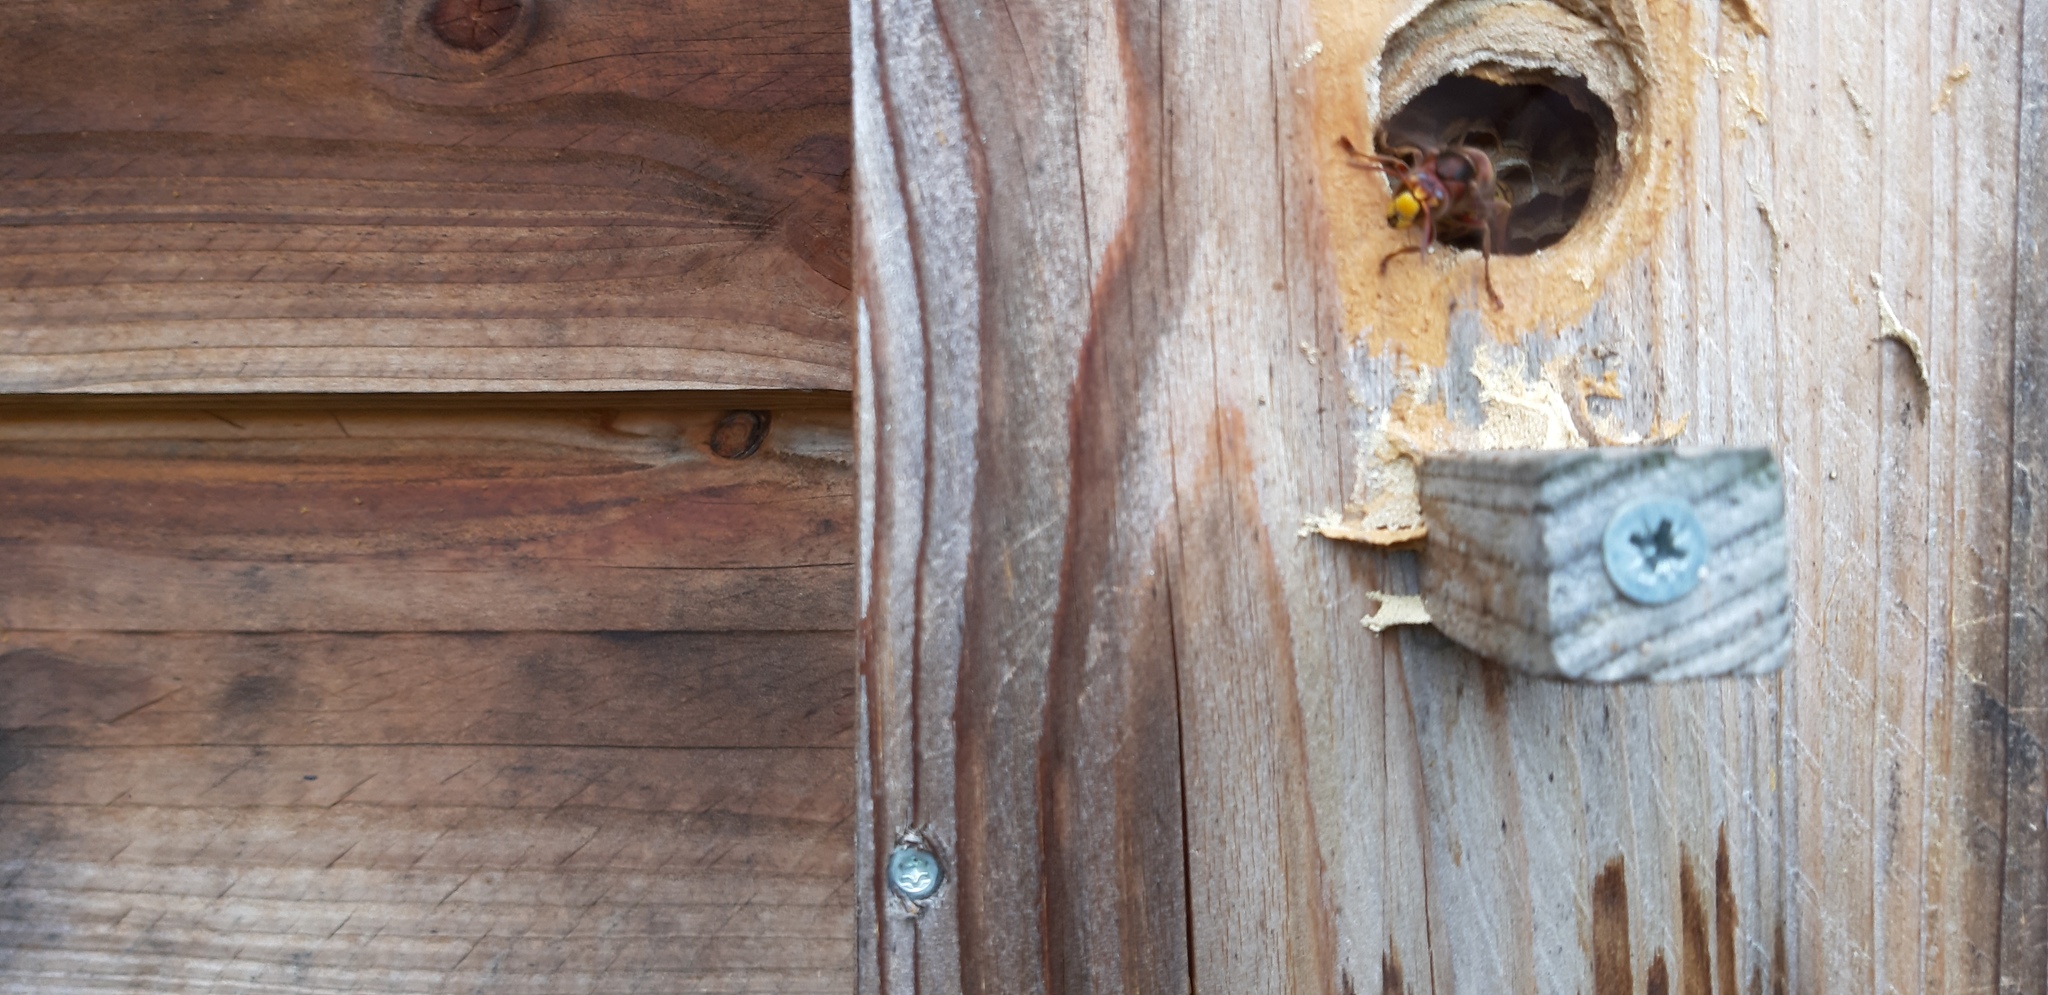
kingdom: Animalia
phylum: Arthropoda
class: Insecta
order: Hymenoptera
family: Vespidae
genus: Vespa
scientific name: Vespa crabro
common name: Hornet
